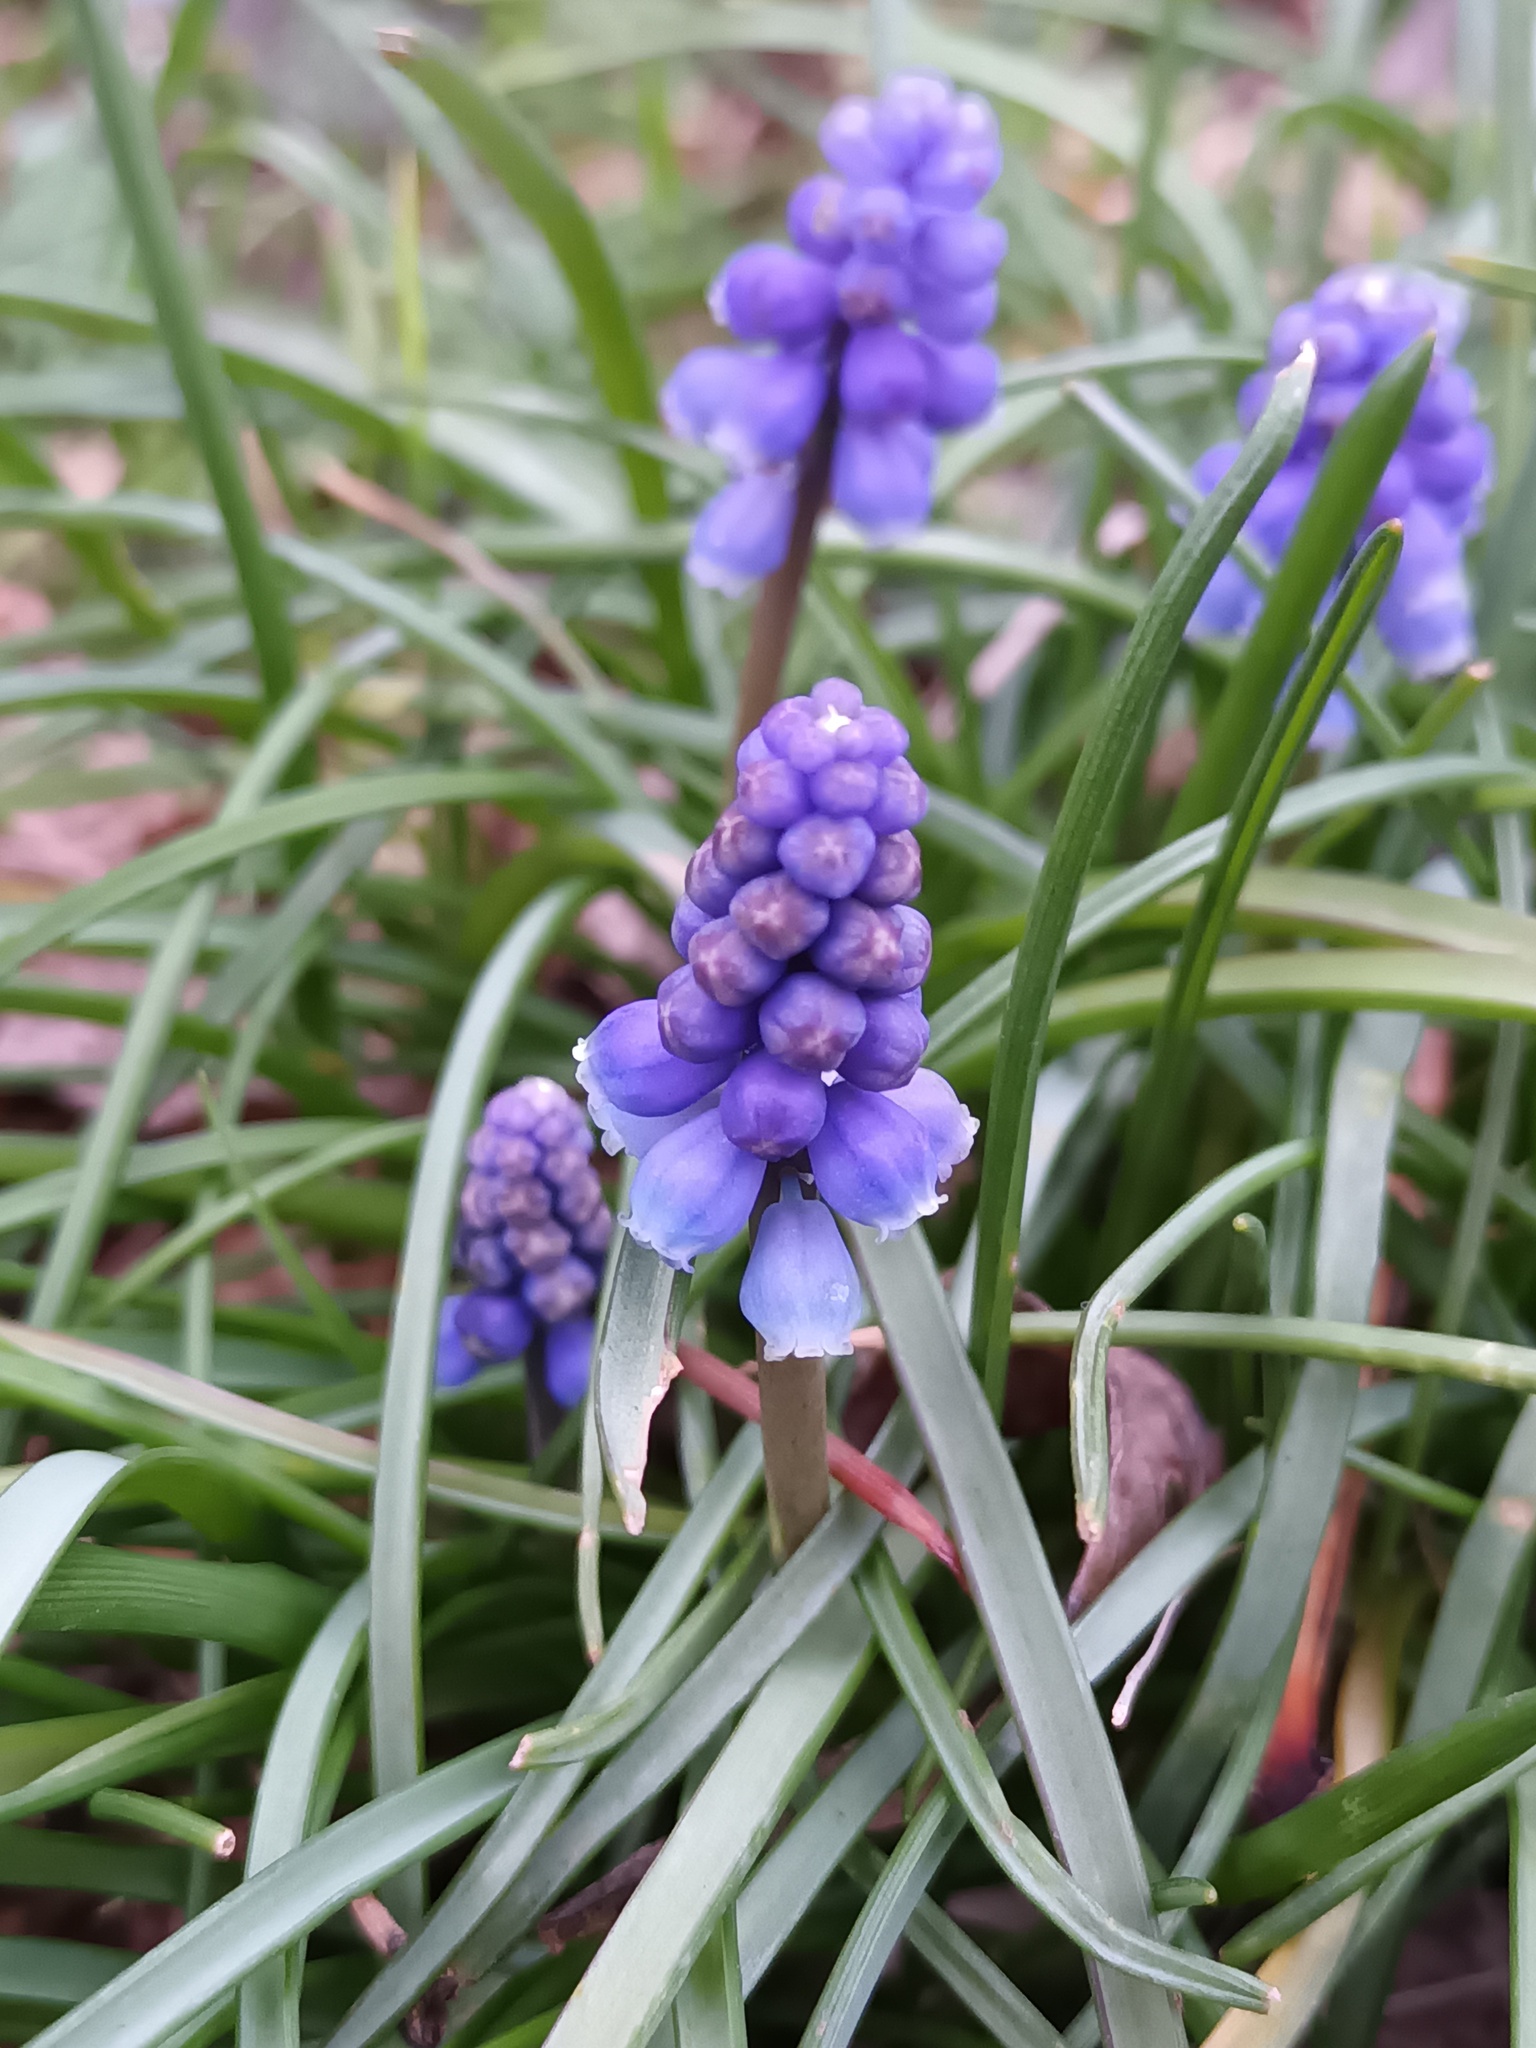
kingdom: Plantae
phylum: Tracheophyta
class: Liliopsida
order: Asparagales
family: Asparagaceae
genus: Muscari
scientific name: Muscari armeniacum
